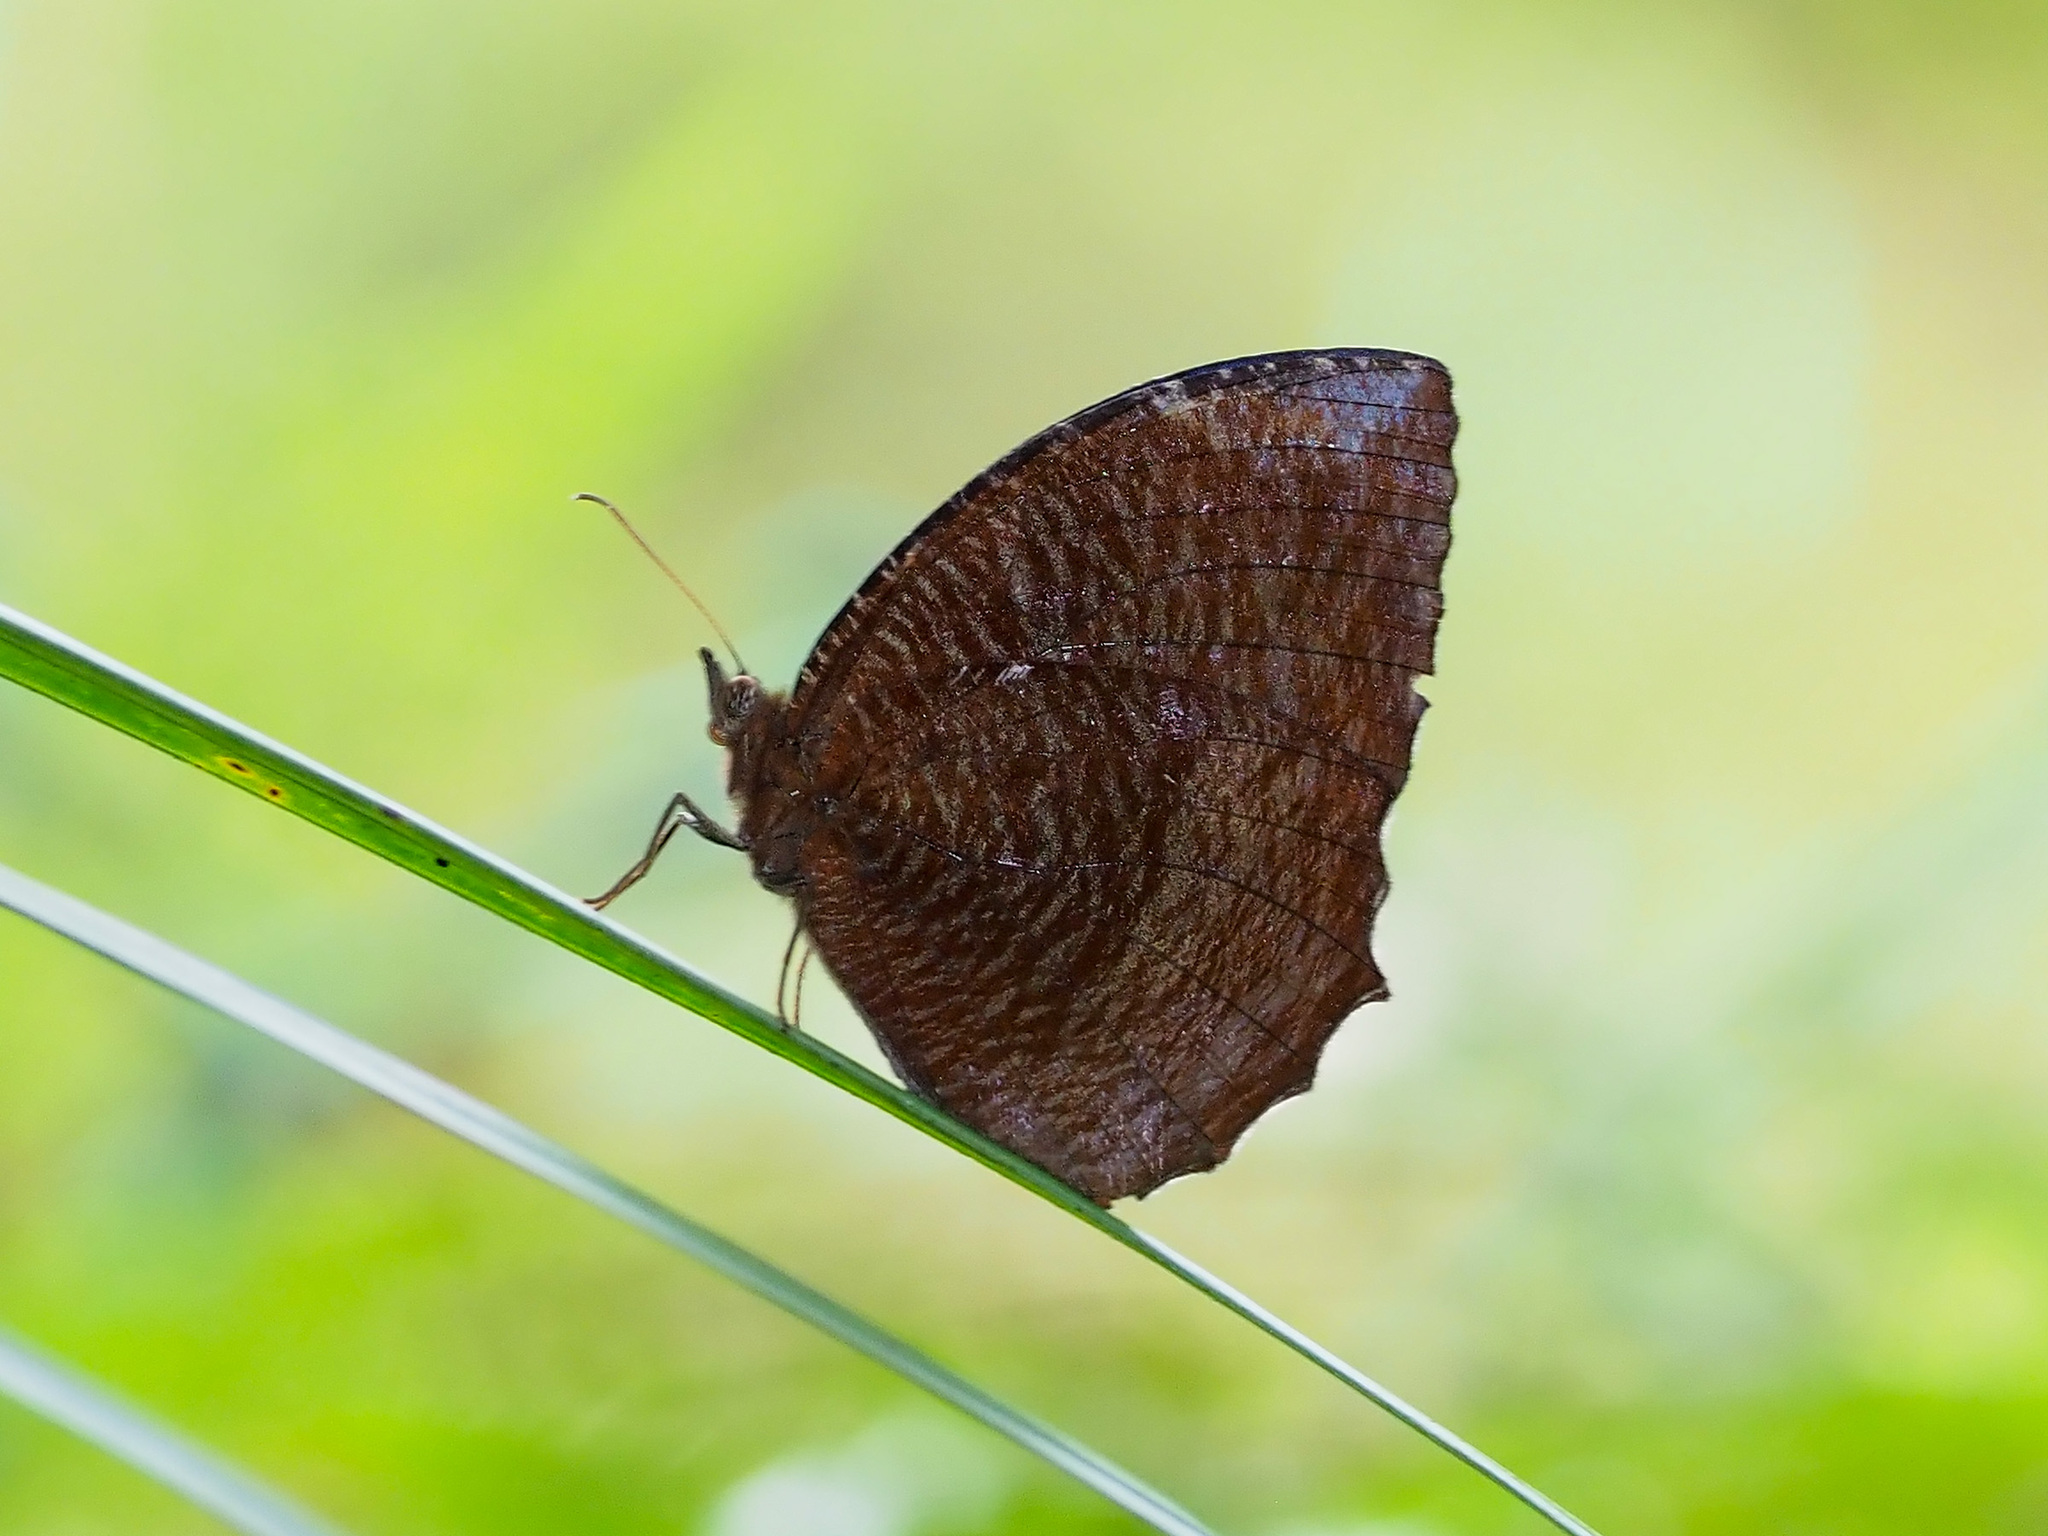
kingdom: Animalia
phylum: Arthropoda
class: Insecta
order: Lepidoptera
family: Nymphalidae
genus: Elymnias
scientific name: Elymnias hypermnestra
